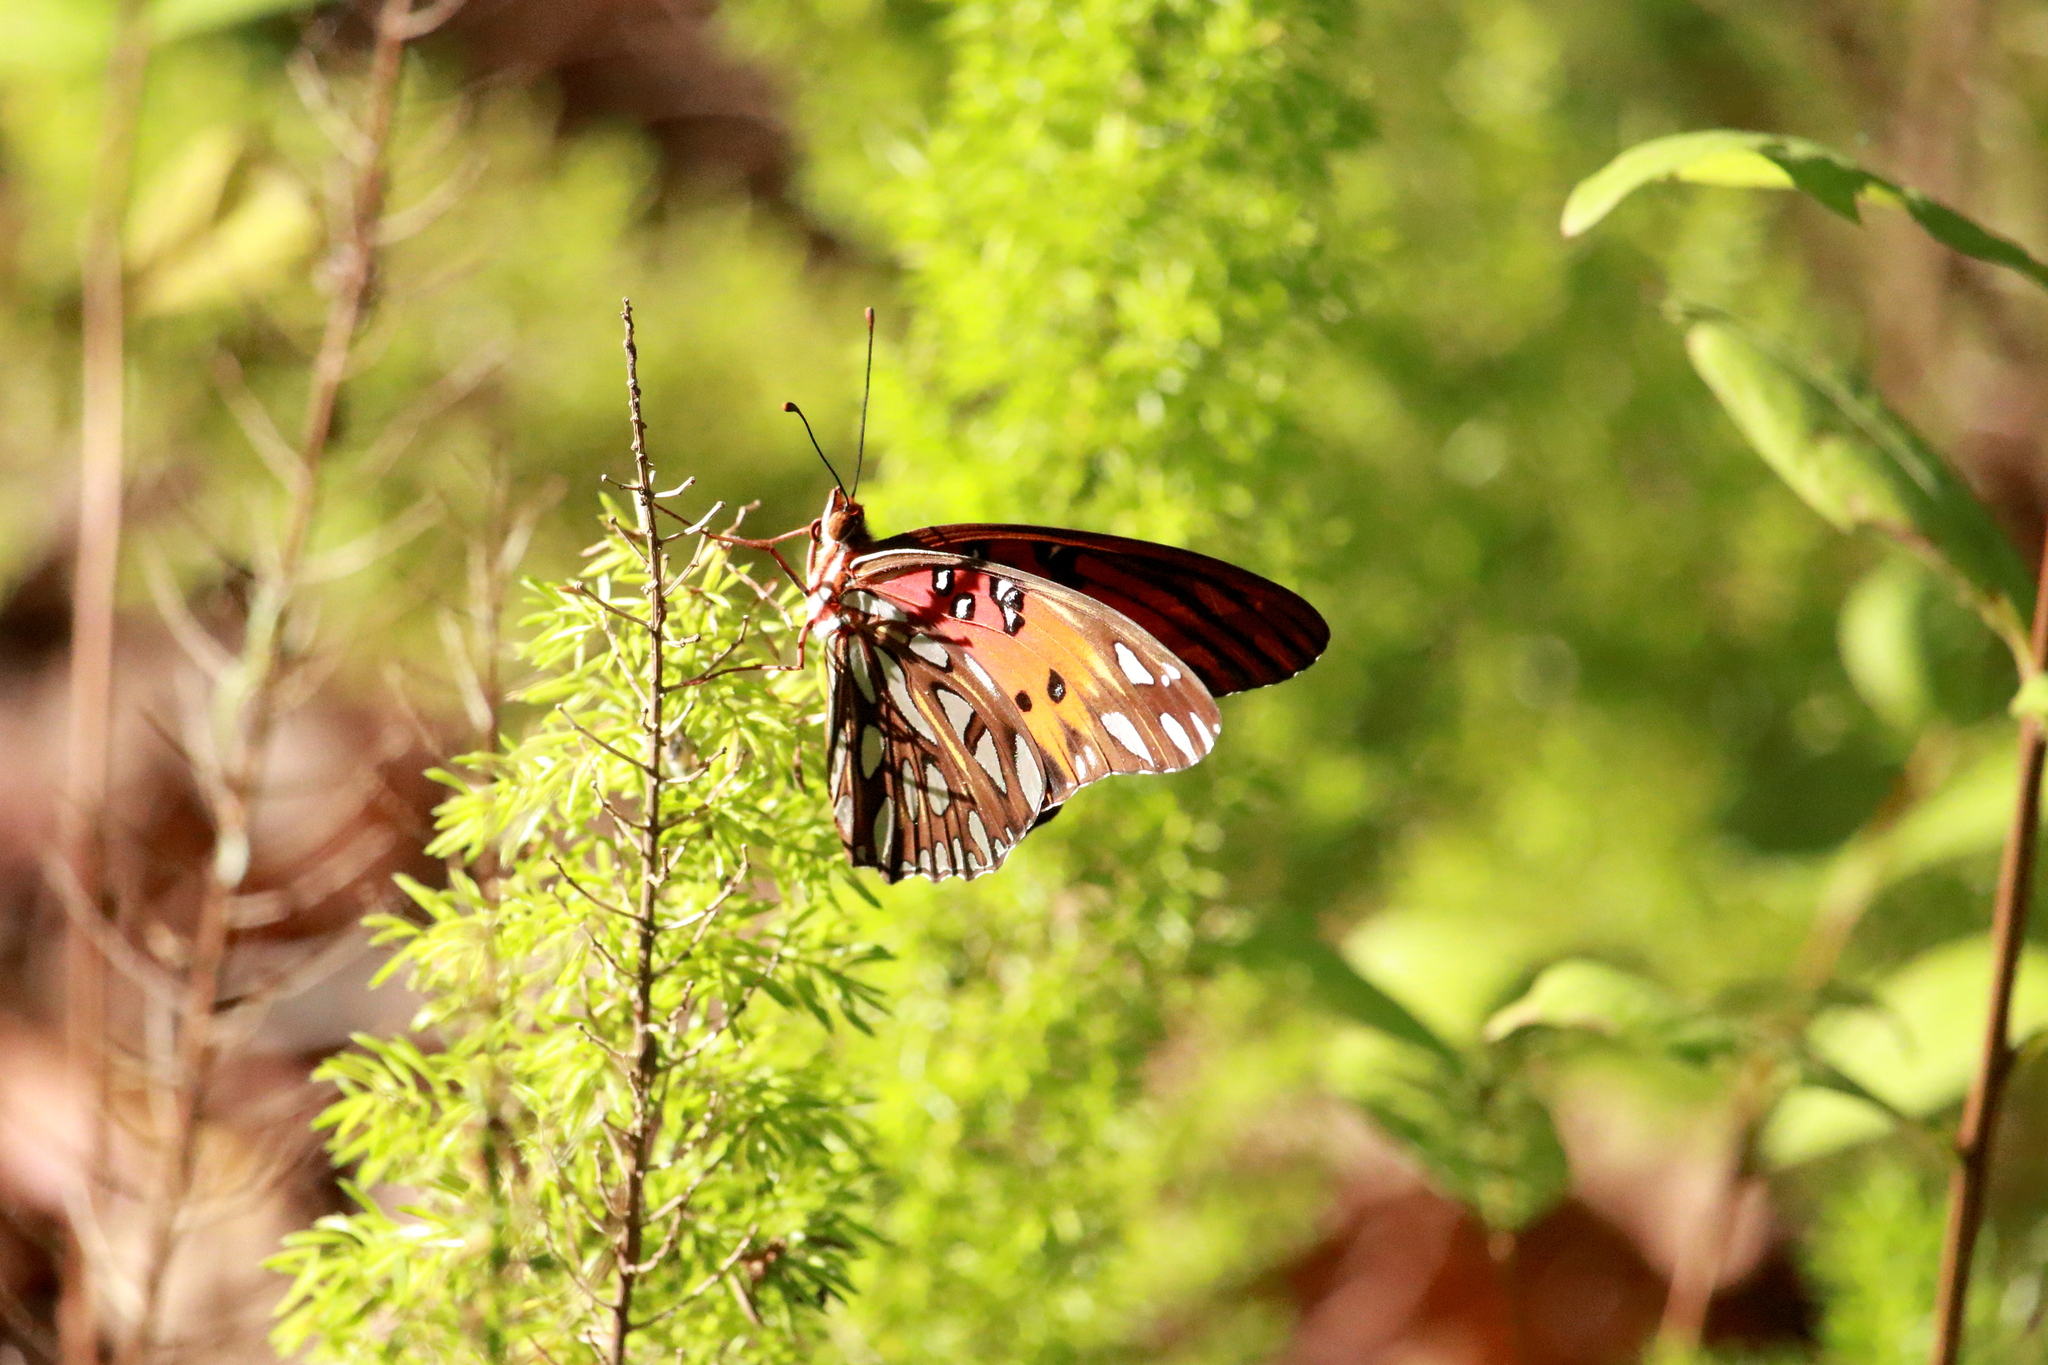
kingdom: Animalia
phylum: Arthropoda
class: Insecta
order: Lepidoptera
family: Nymphalidae
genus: Dione
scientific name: Dione vanillae
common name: Gulf fritillary
